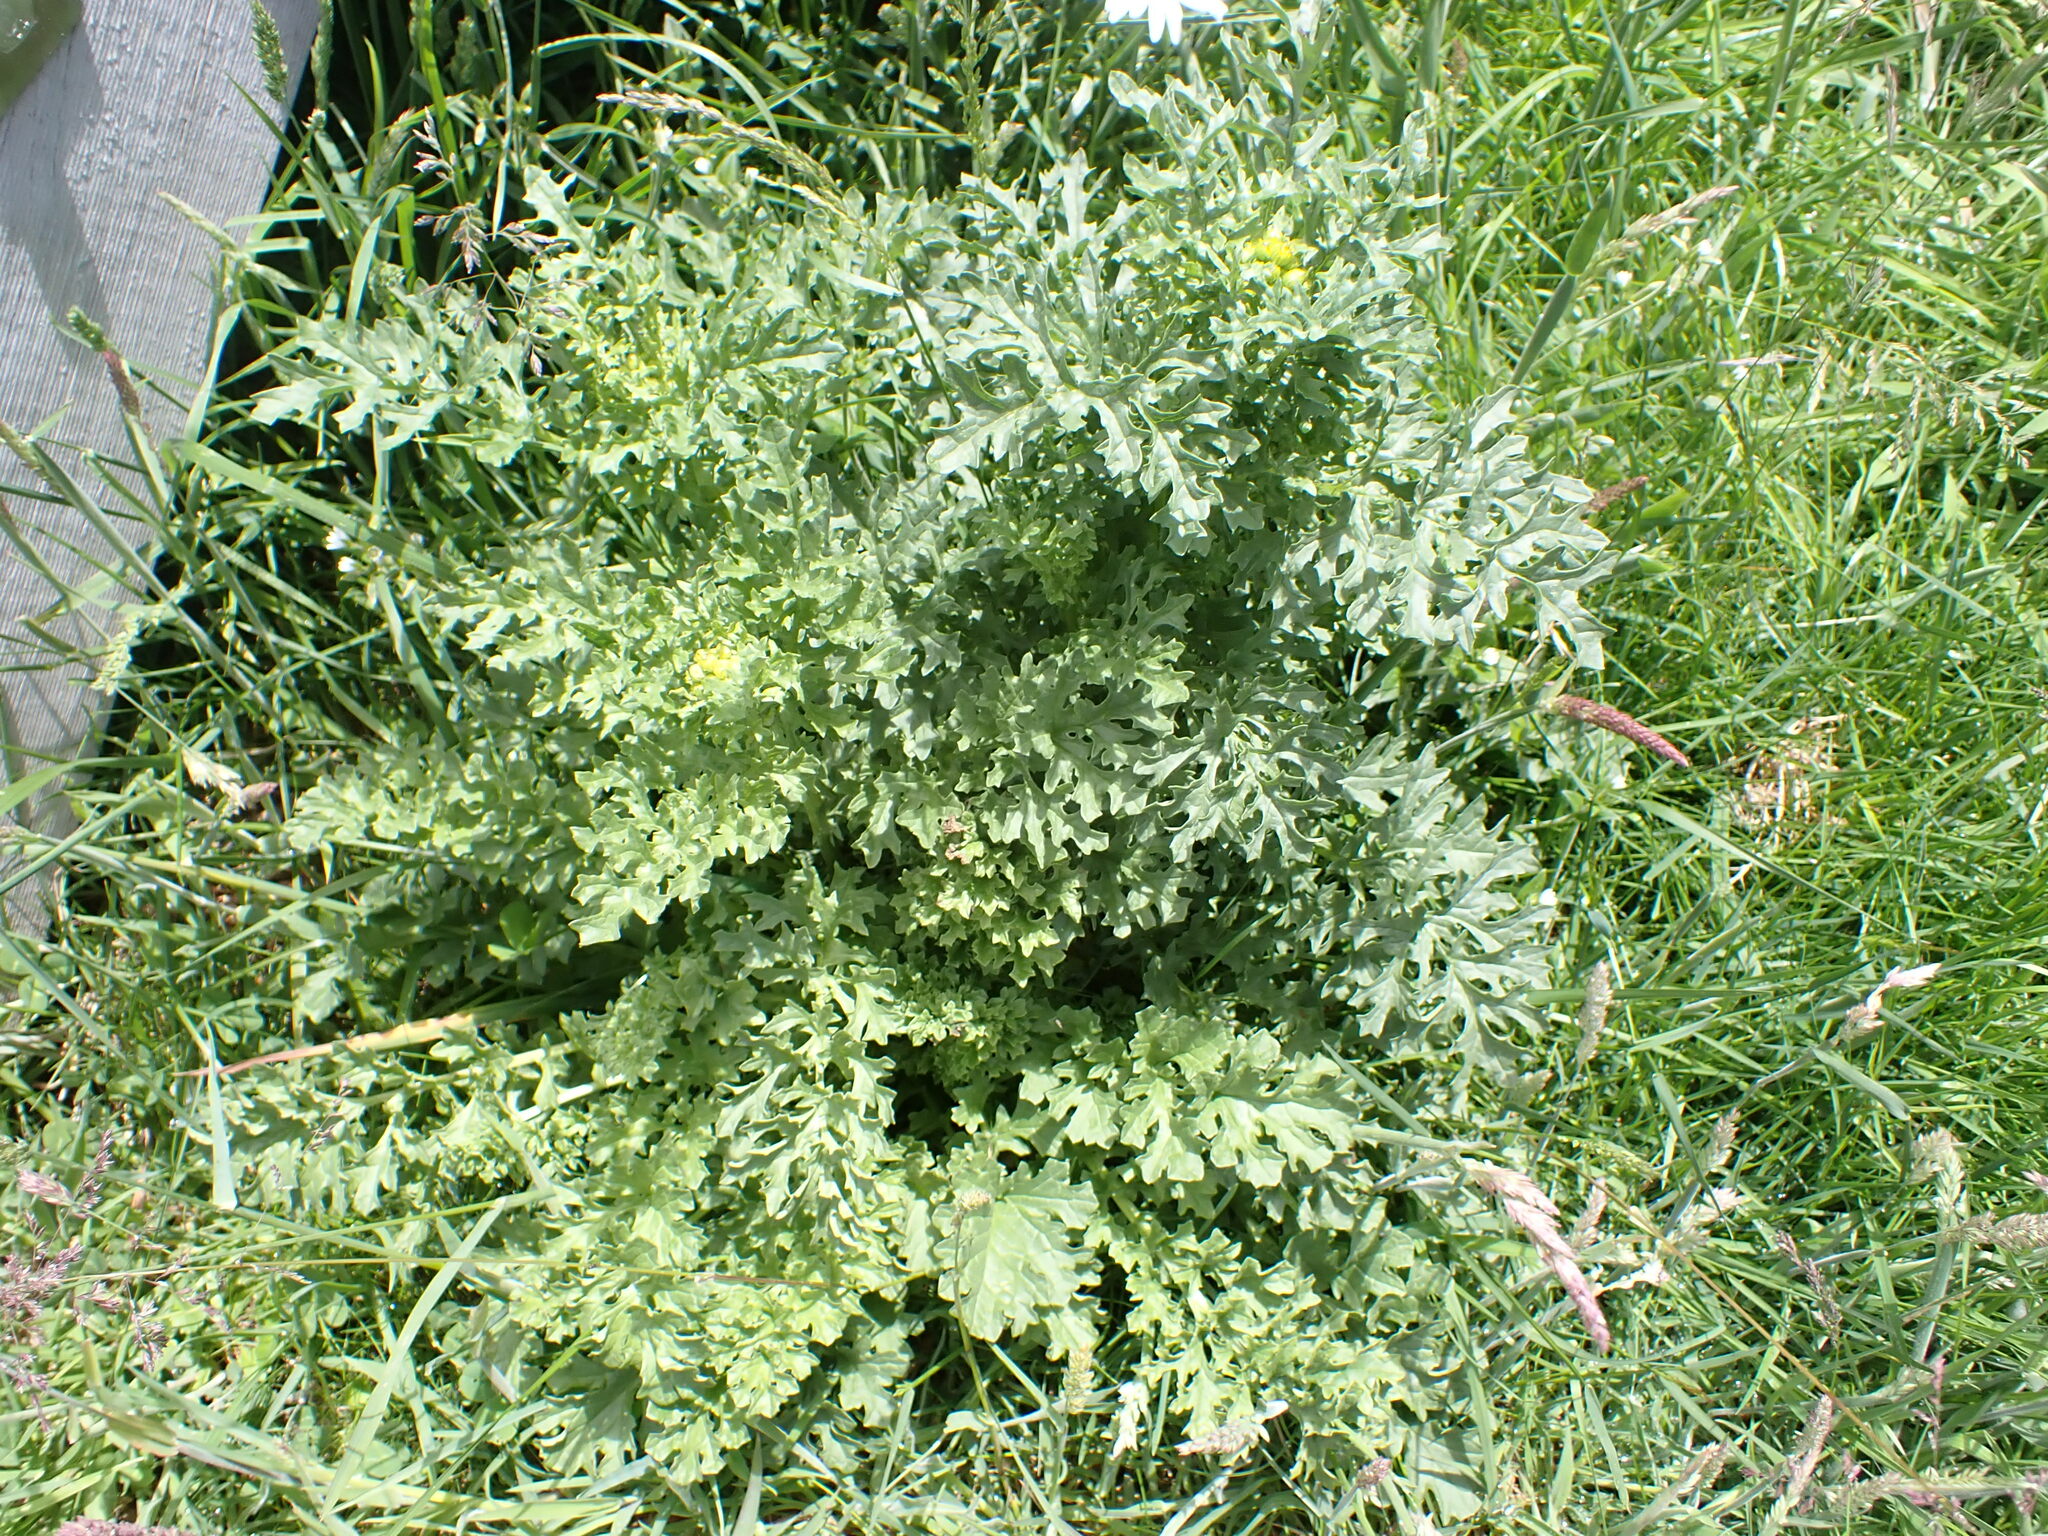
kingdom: Plantae
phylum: Tracheophyta
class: Magnoliopsida
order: Asterales
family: Asteraceae
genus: Jacobaea
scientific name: Jacobaea vulgaris
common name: Stinking willie
